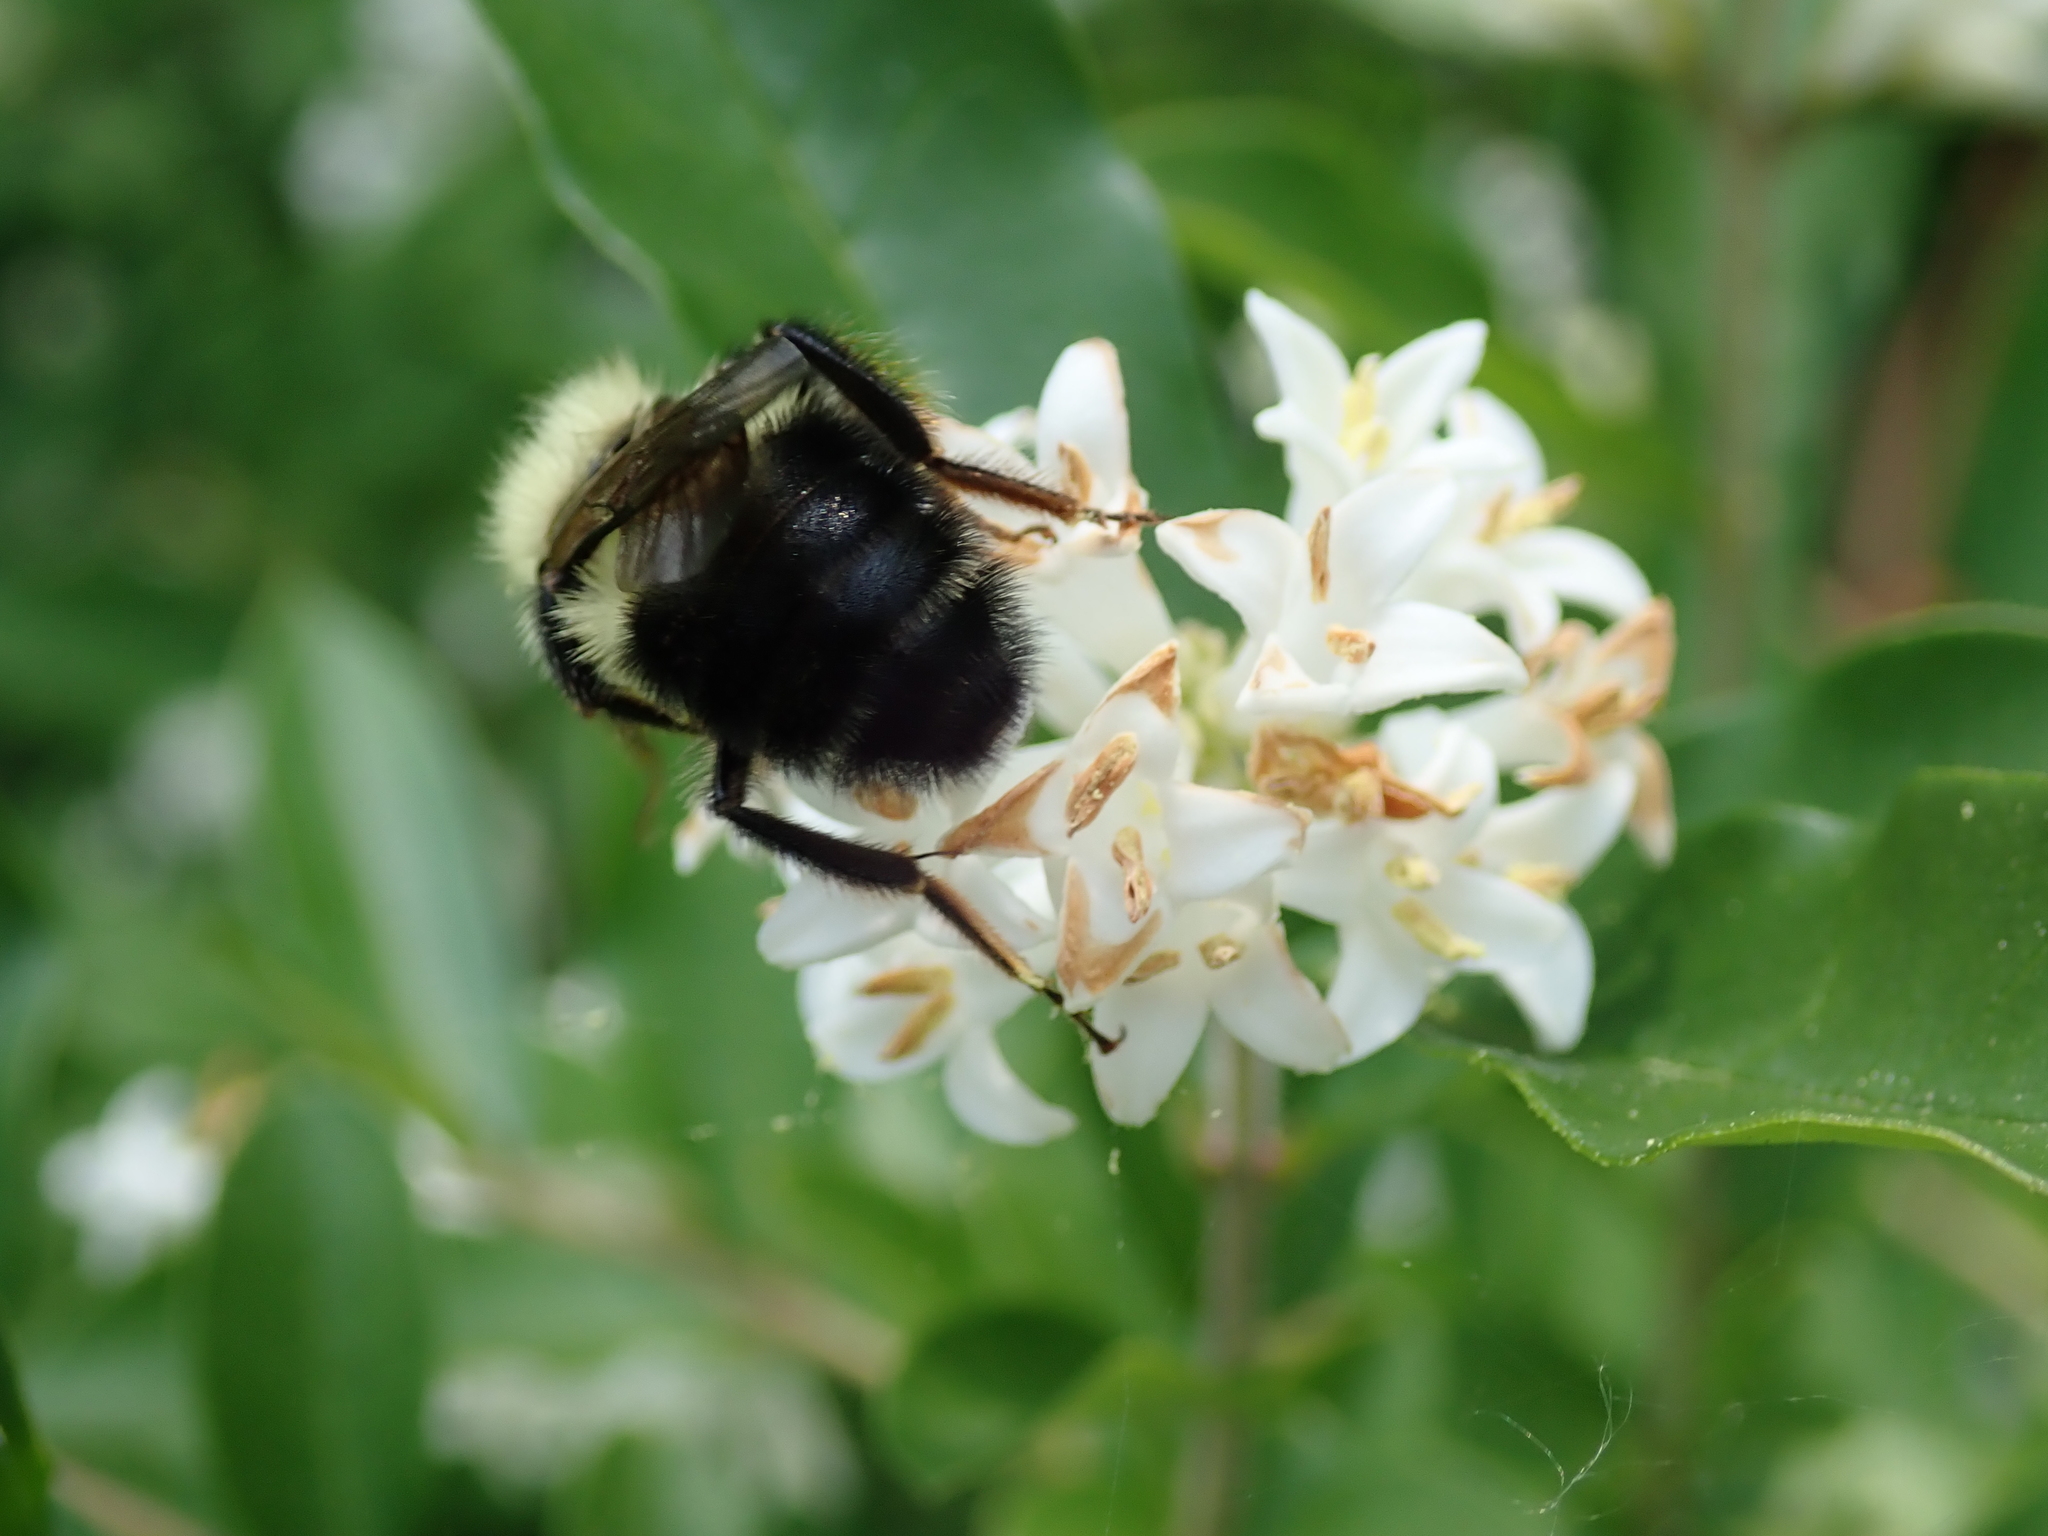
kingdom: Animalia
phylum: Arthropoda
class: Insecta
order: Hymenoptera
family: Apidae
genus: Bombus
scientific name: Bombus bimaculatus
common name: Two-spotted bumble bee
